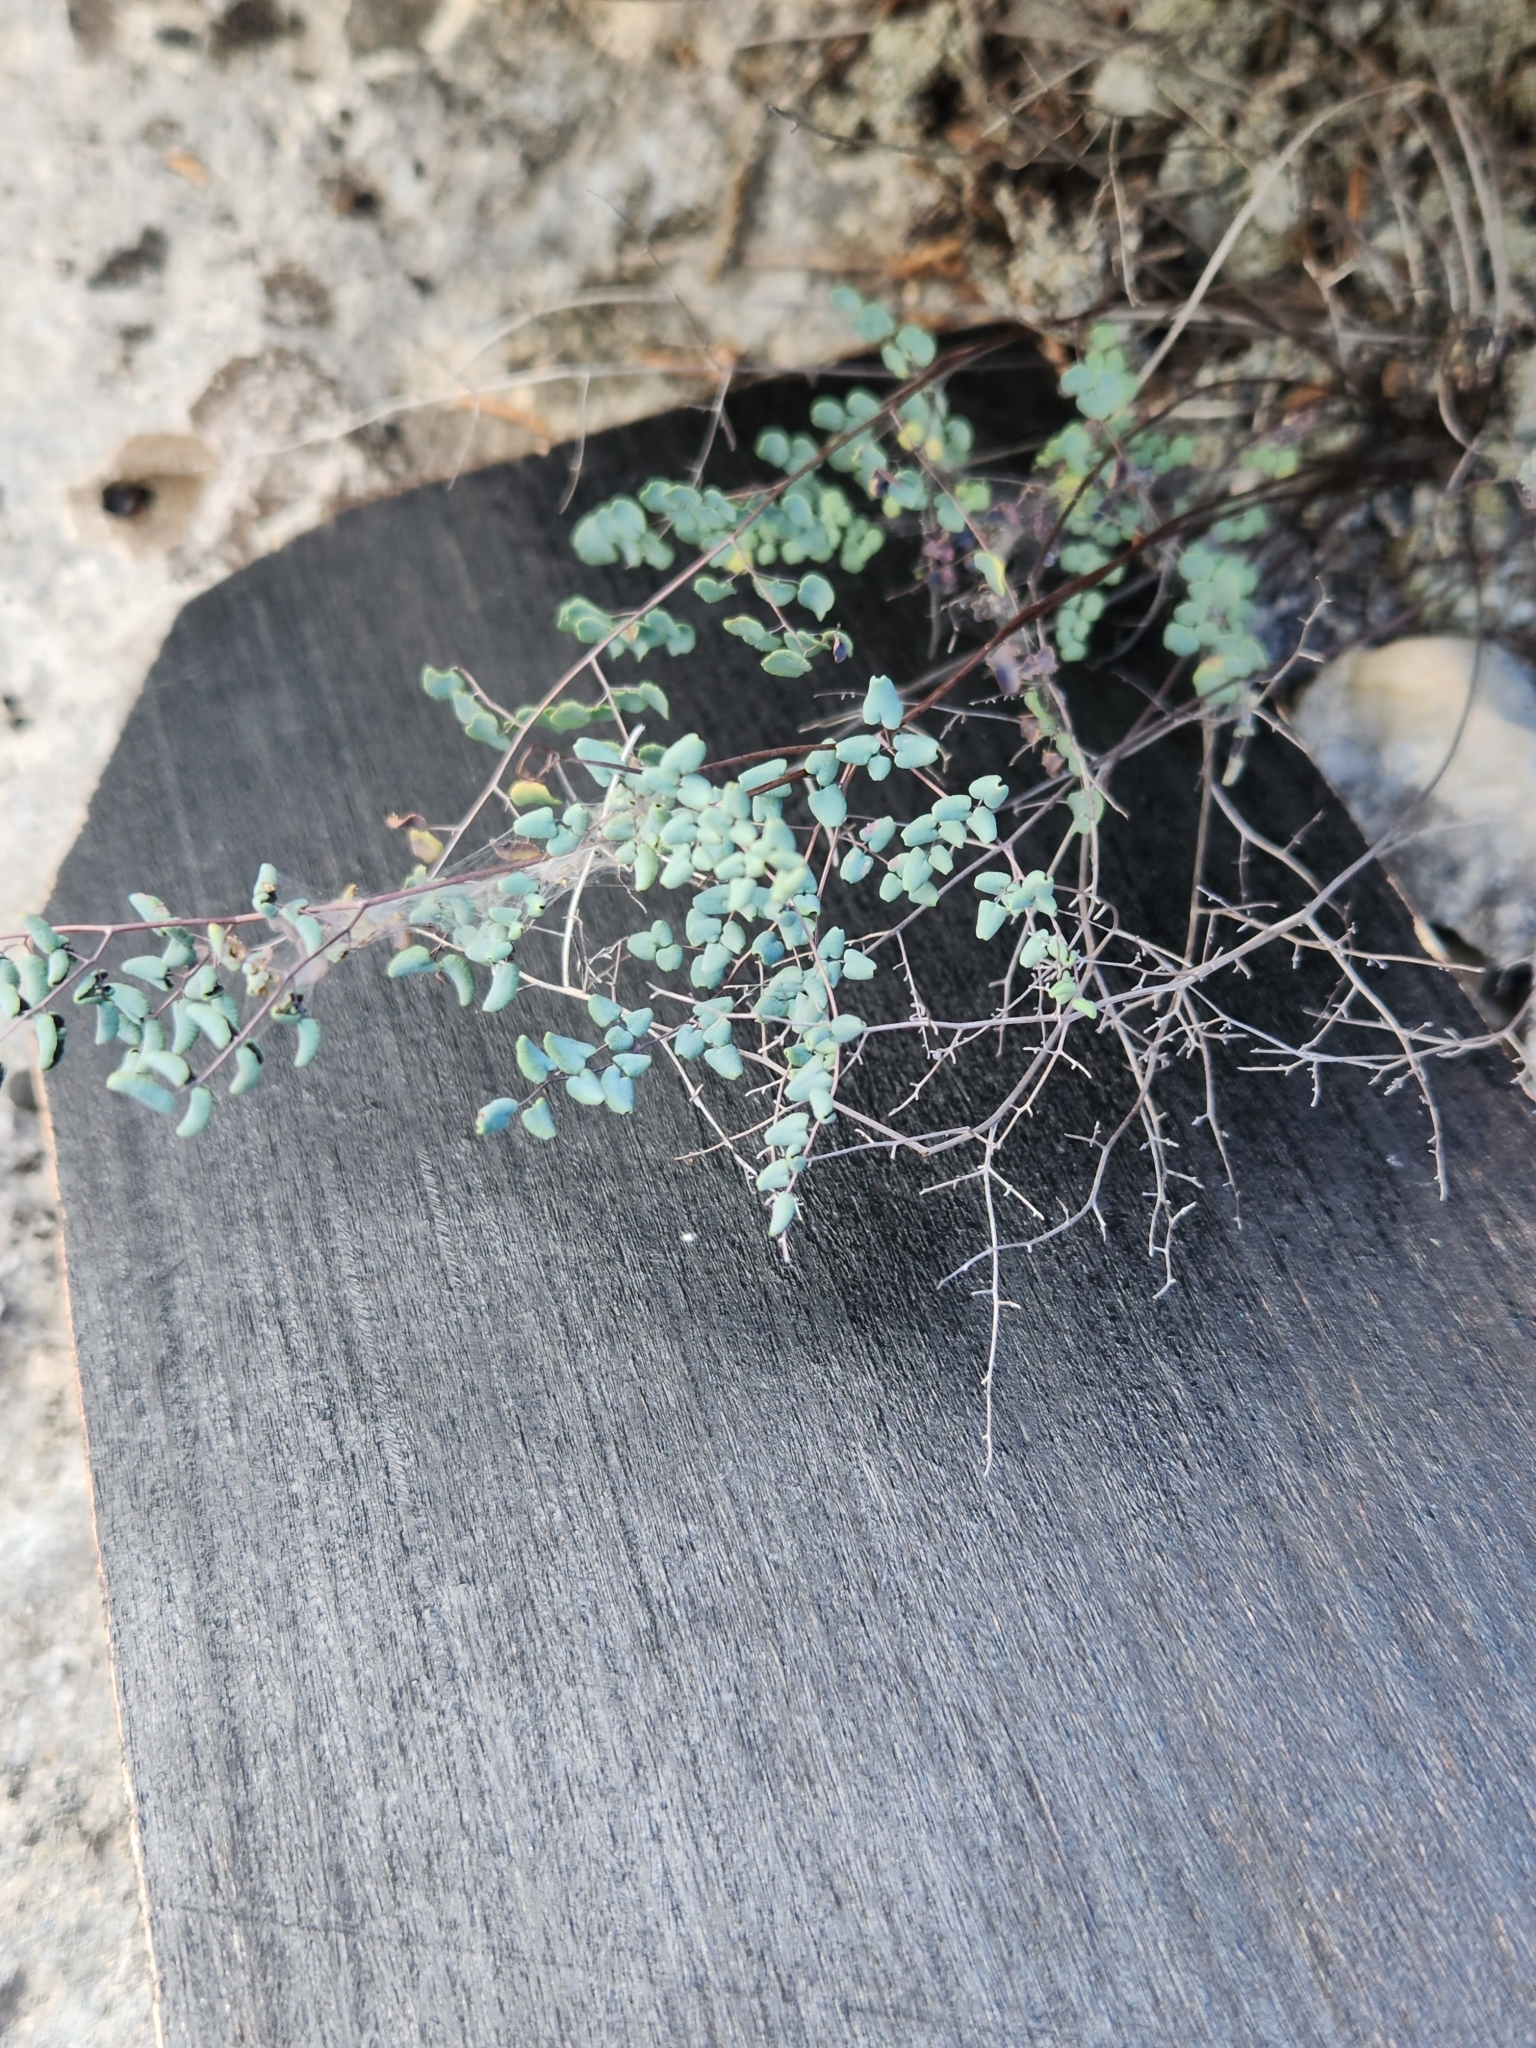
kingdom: Plantae
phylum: Tracheophyta
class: Polypodiopsida
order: Polypodiales
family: Pteridaceae
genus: Argyrochosma
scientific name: Argyrochosma microphylla
